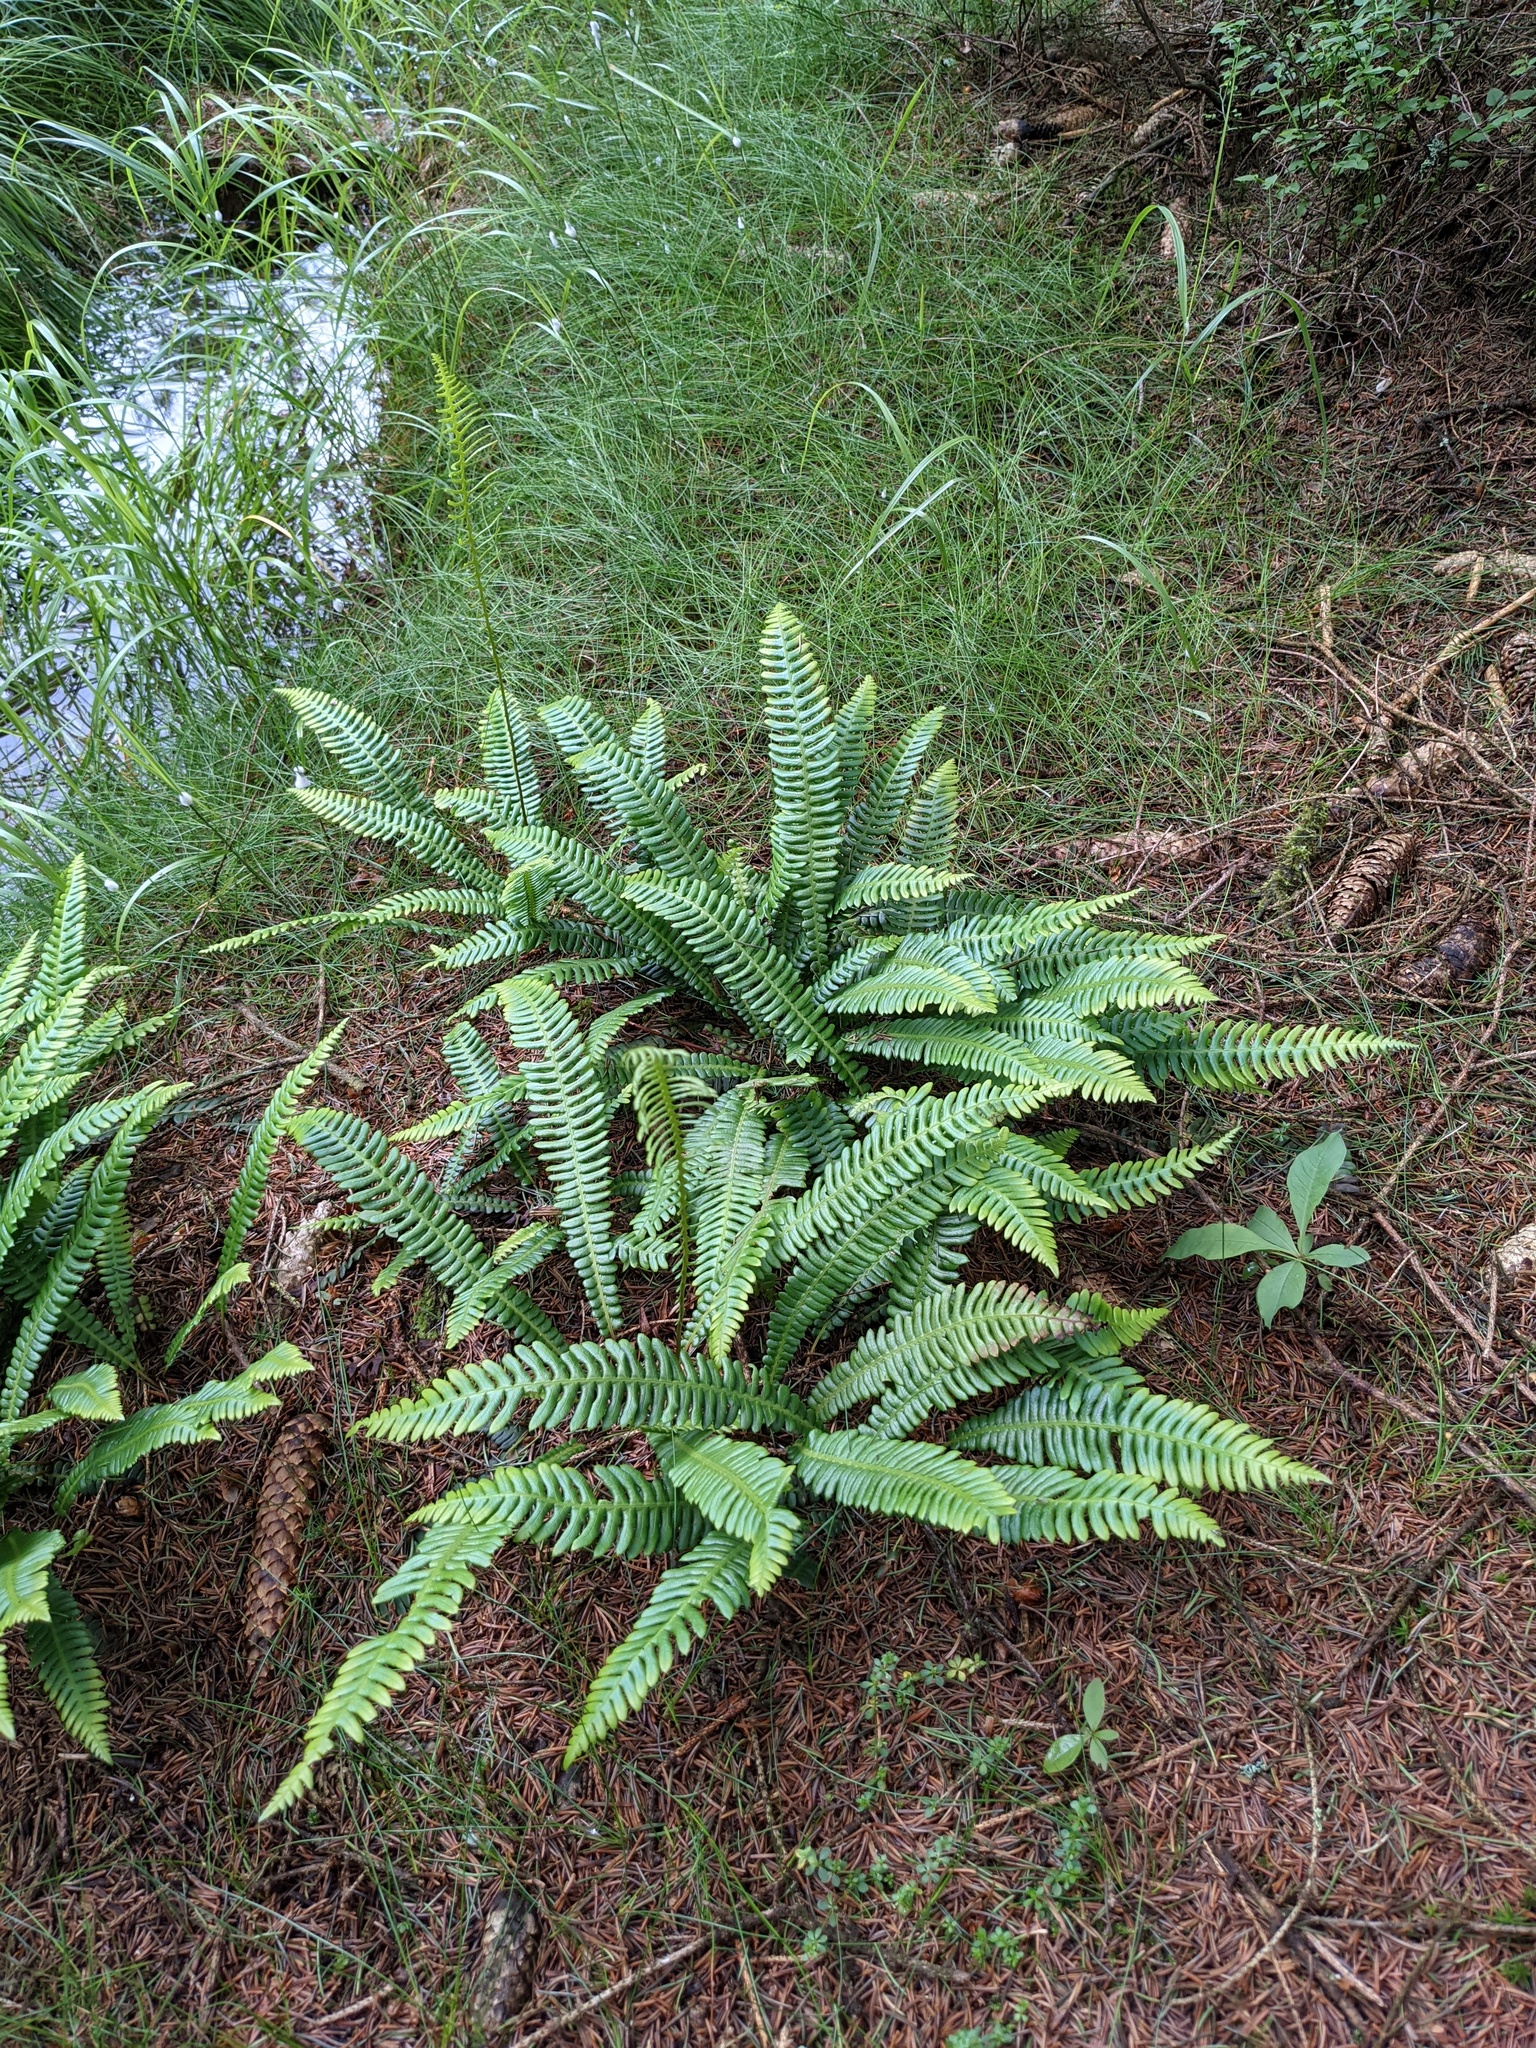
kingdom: Plantae
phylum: Tracheophyta
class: Polypodiopsida
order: Polypodiales
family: Blechnaceae
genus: Struthiopteris
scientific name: Struthiopteris spicant
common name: Deer fern
